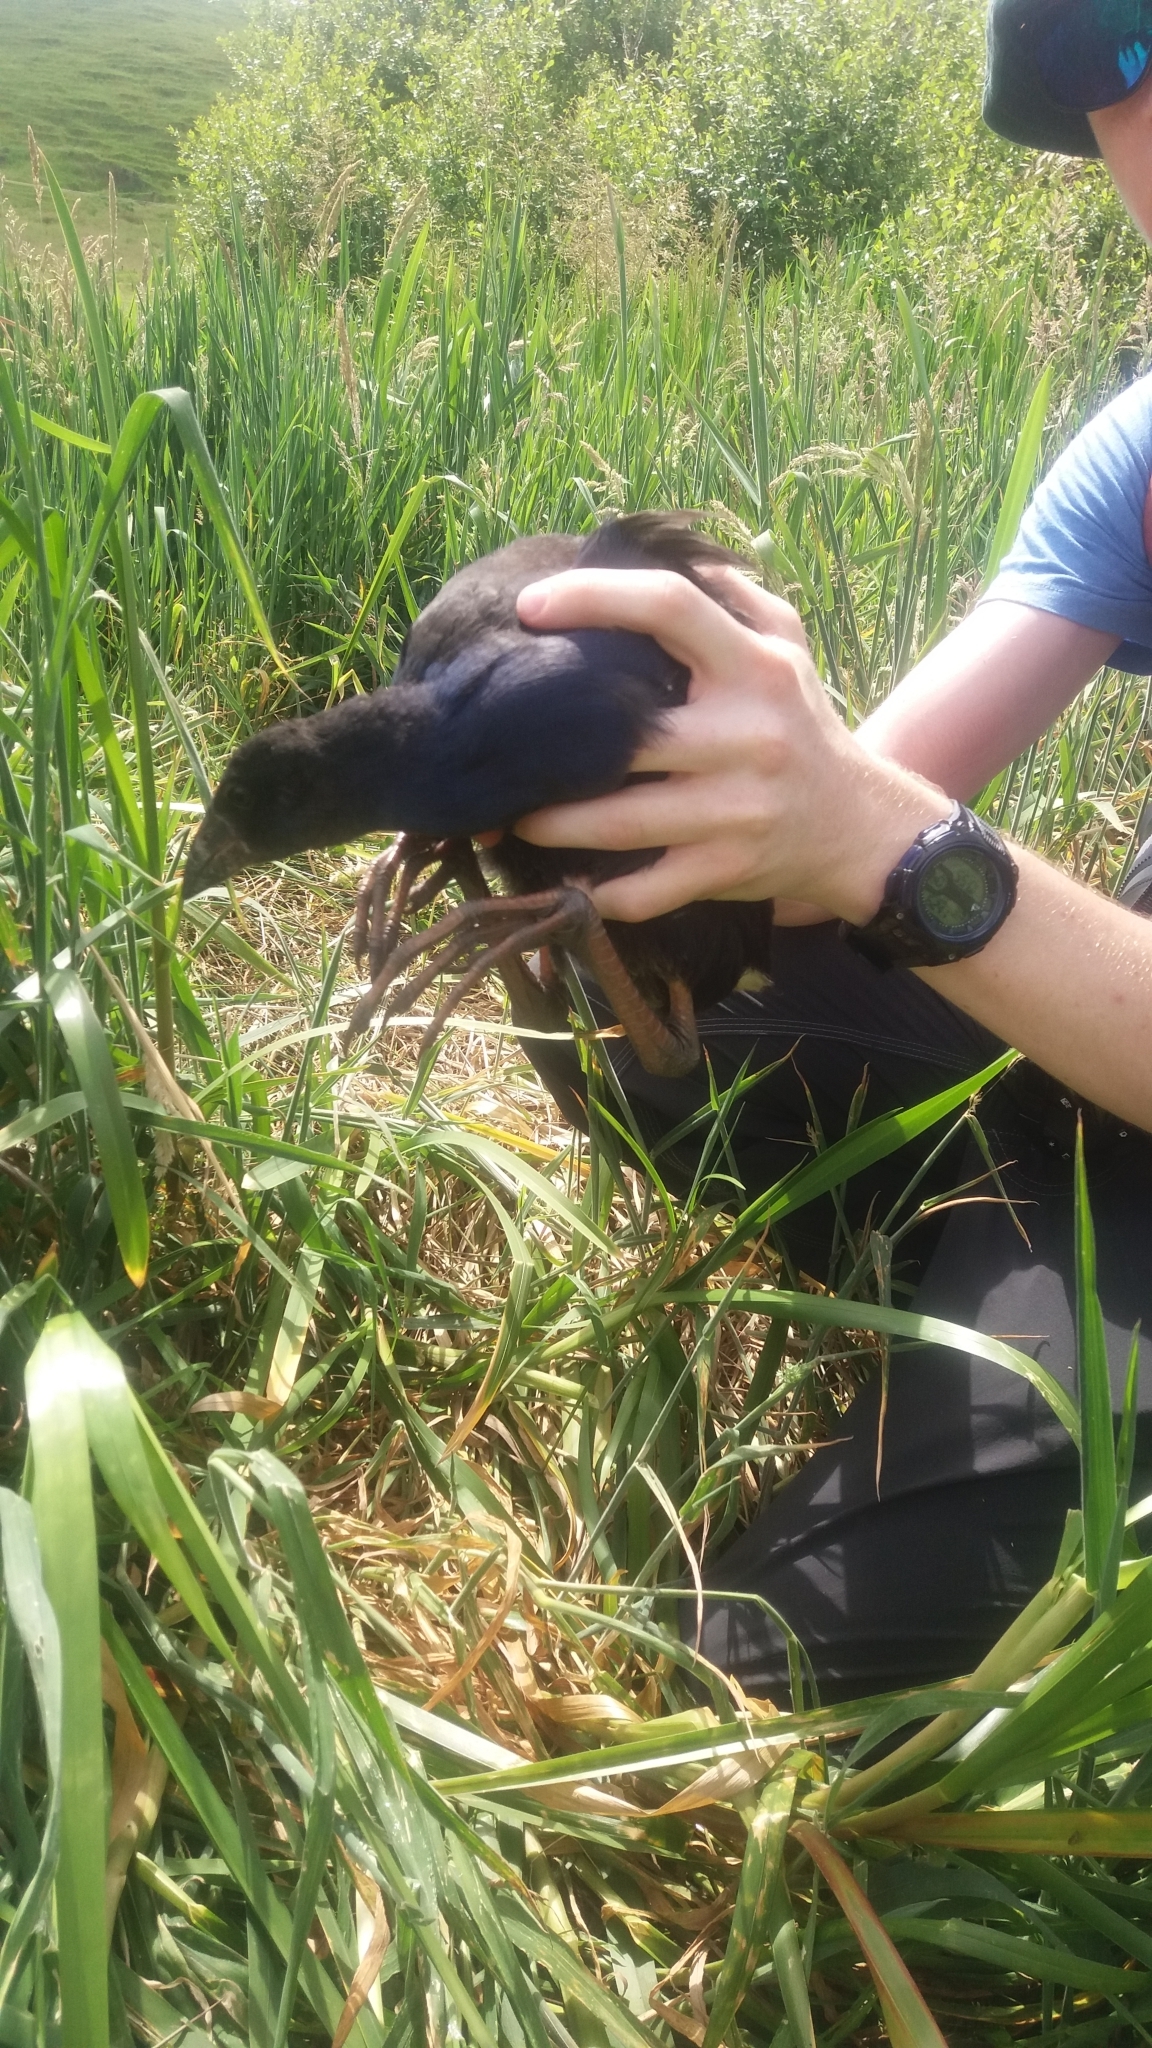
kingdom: Animalia
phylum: Chordata
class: Aves
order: Gruiformes
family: Rallidae
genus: Porphyrio
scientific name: Porphyrio melanotus
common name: Australasian swamphen
